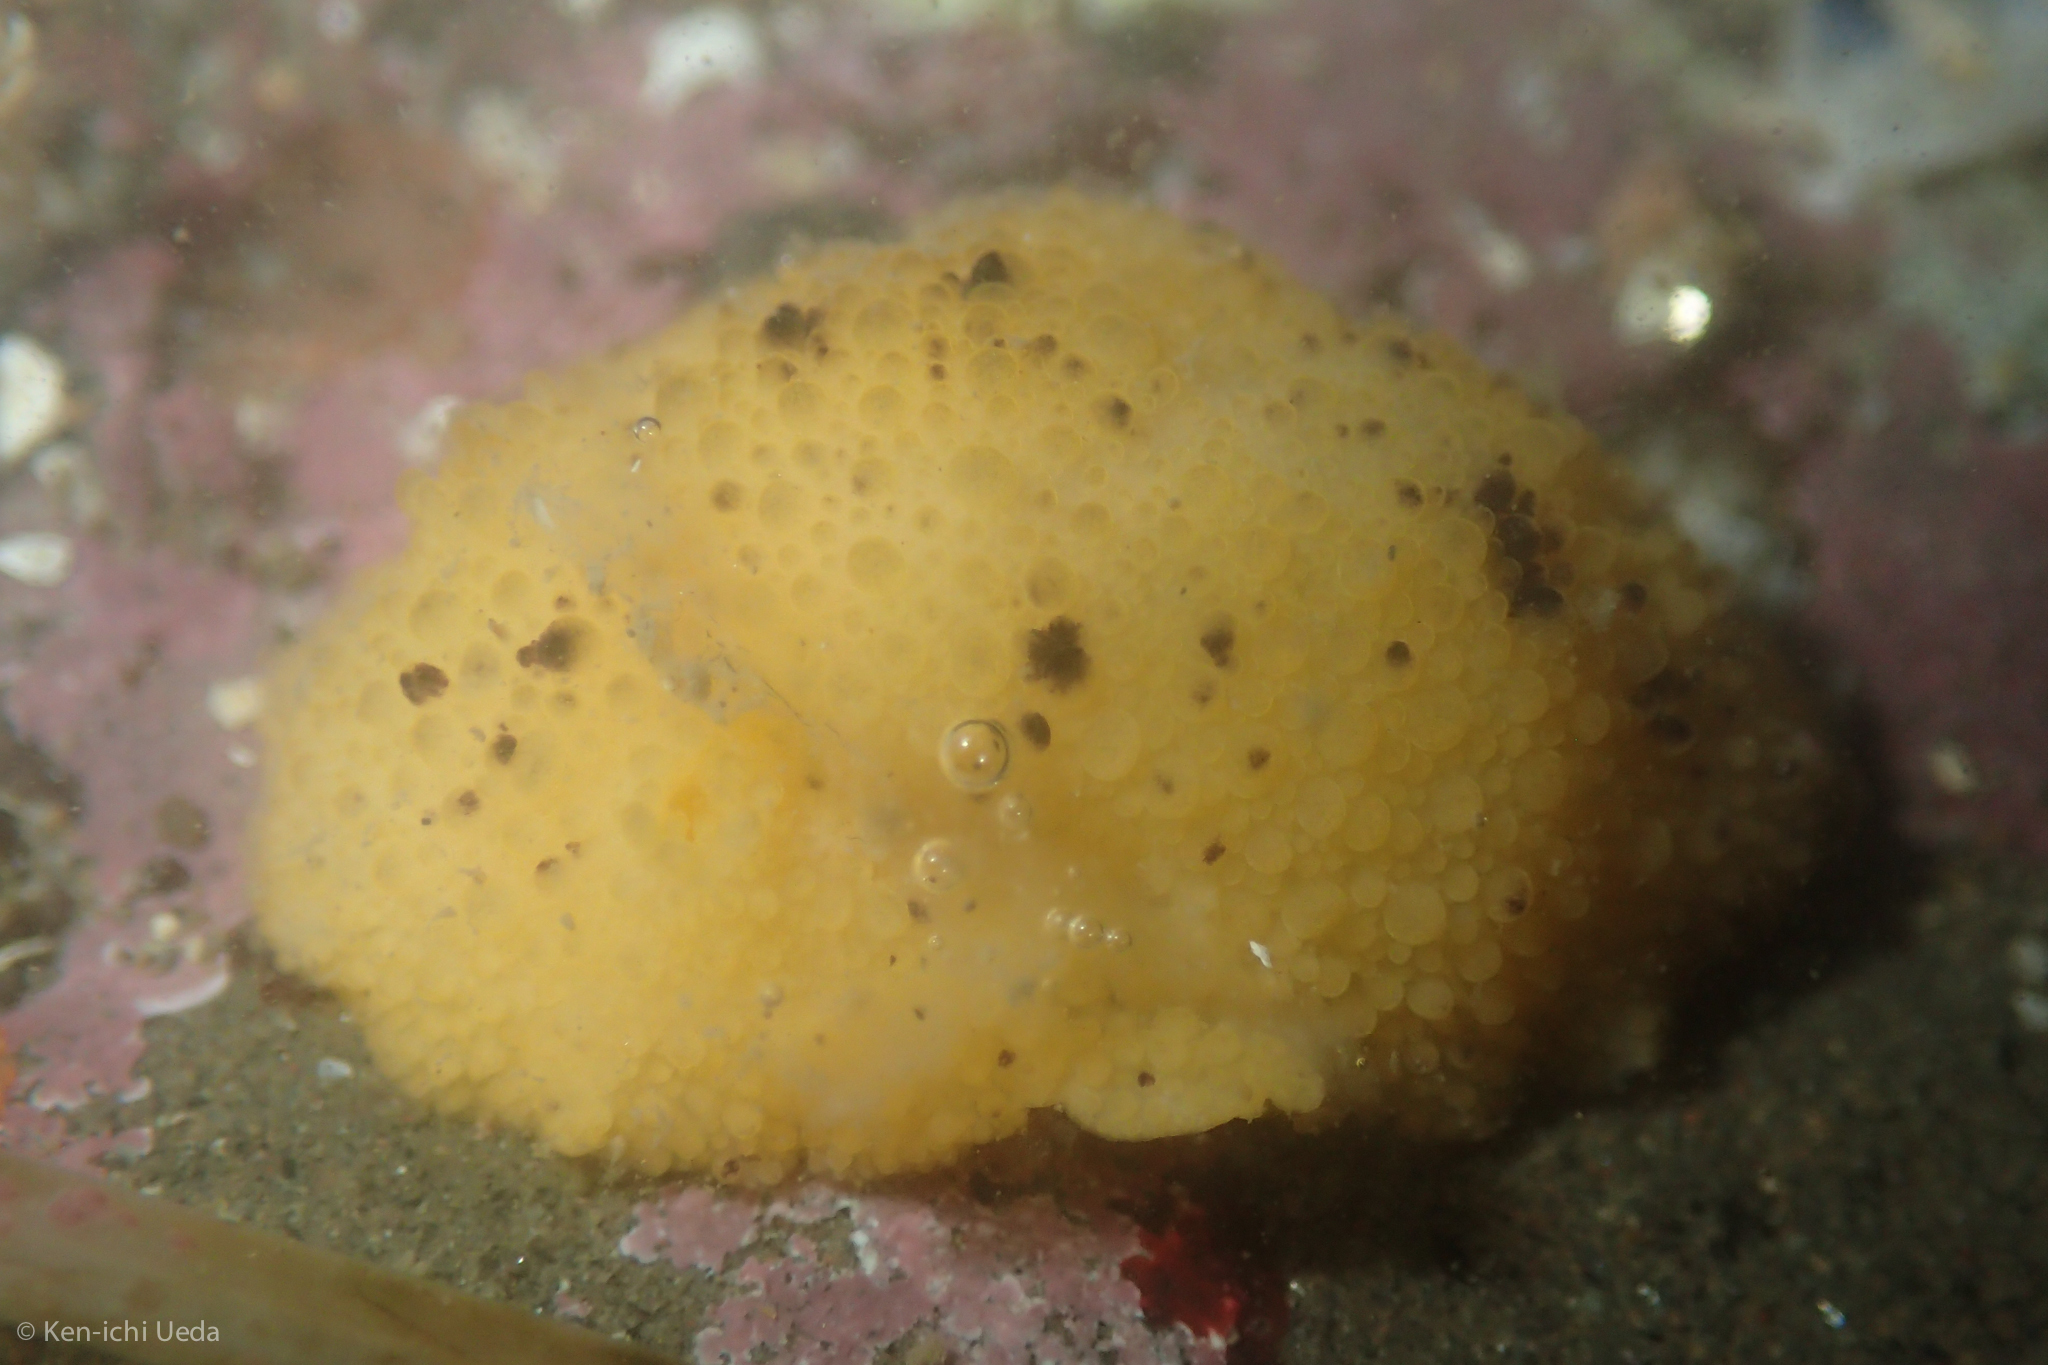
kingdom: Animalia
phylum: Mollusca
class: Gastropoda
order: Nudibranchia
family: Dorididae
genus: Doris
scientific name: Doris montereyensis
